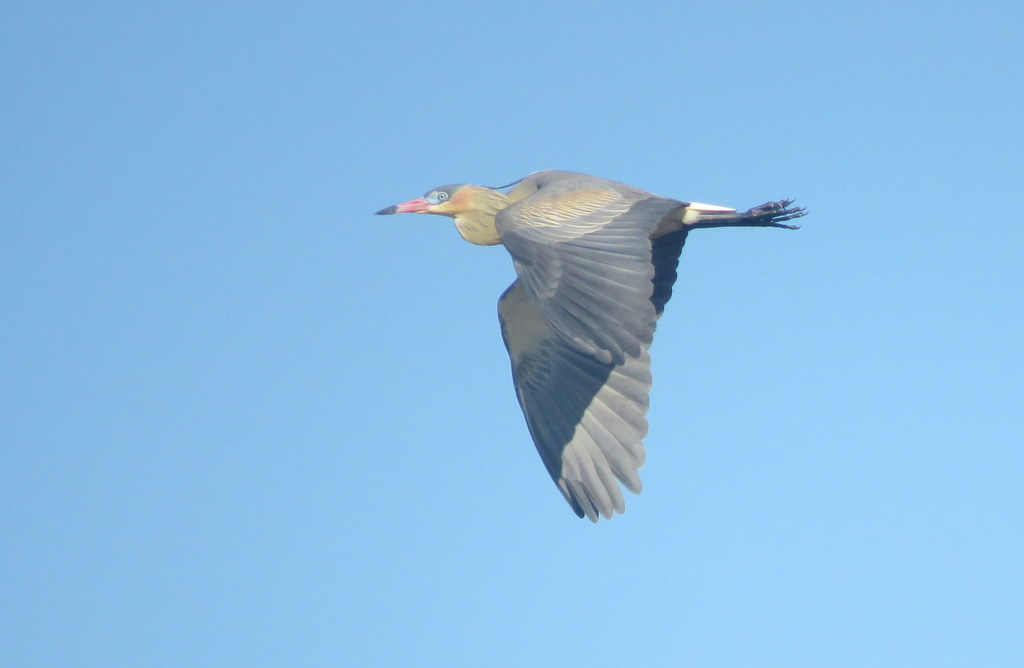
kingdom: Animalia
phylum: Chordata
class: Aves
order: Pelecaniformes
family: Ardeidae
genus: Syrigma
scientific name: Syrigma sibilatrix
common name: Whistling heron
